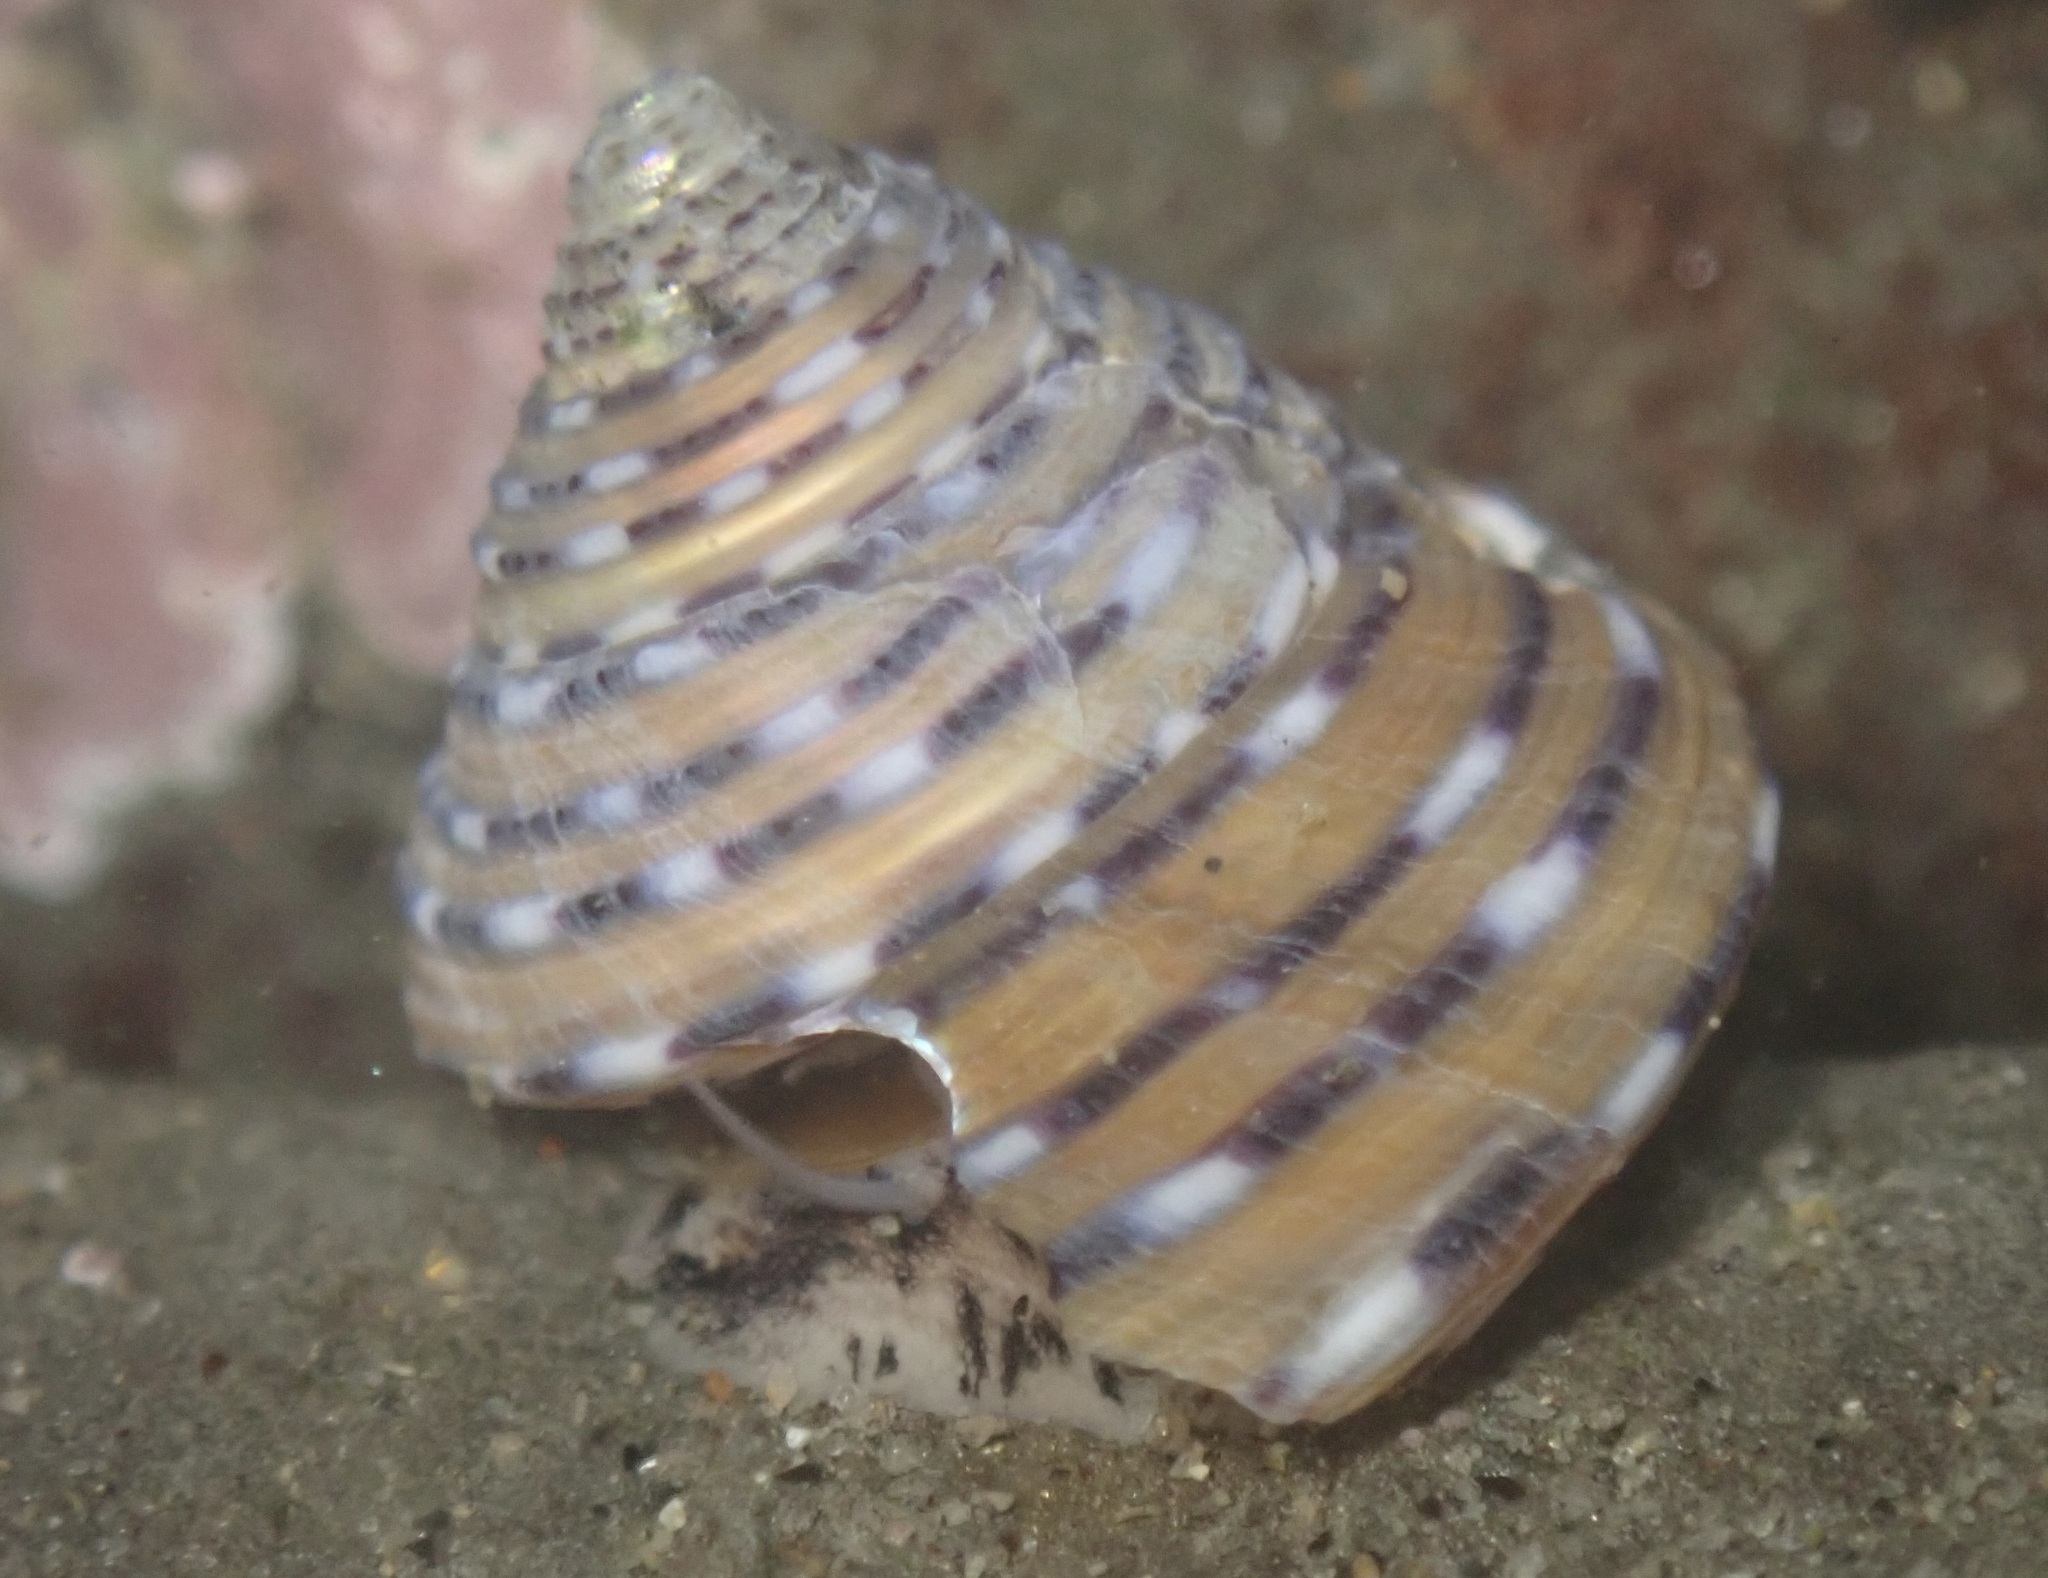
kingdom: Animalia
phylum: Mollusca
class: Gastropoda
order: Trochida
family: Calliostomatidae
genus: Calliostoma
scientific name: Calliostoma tricolor
